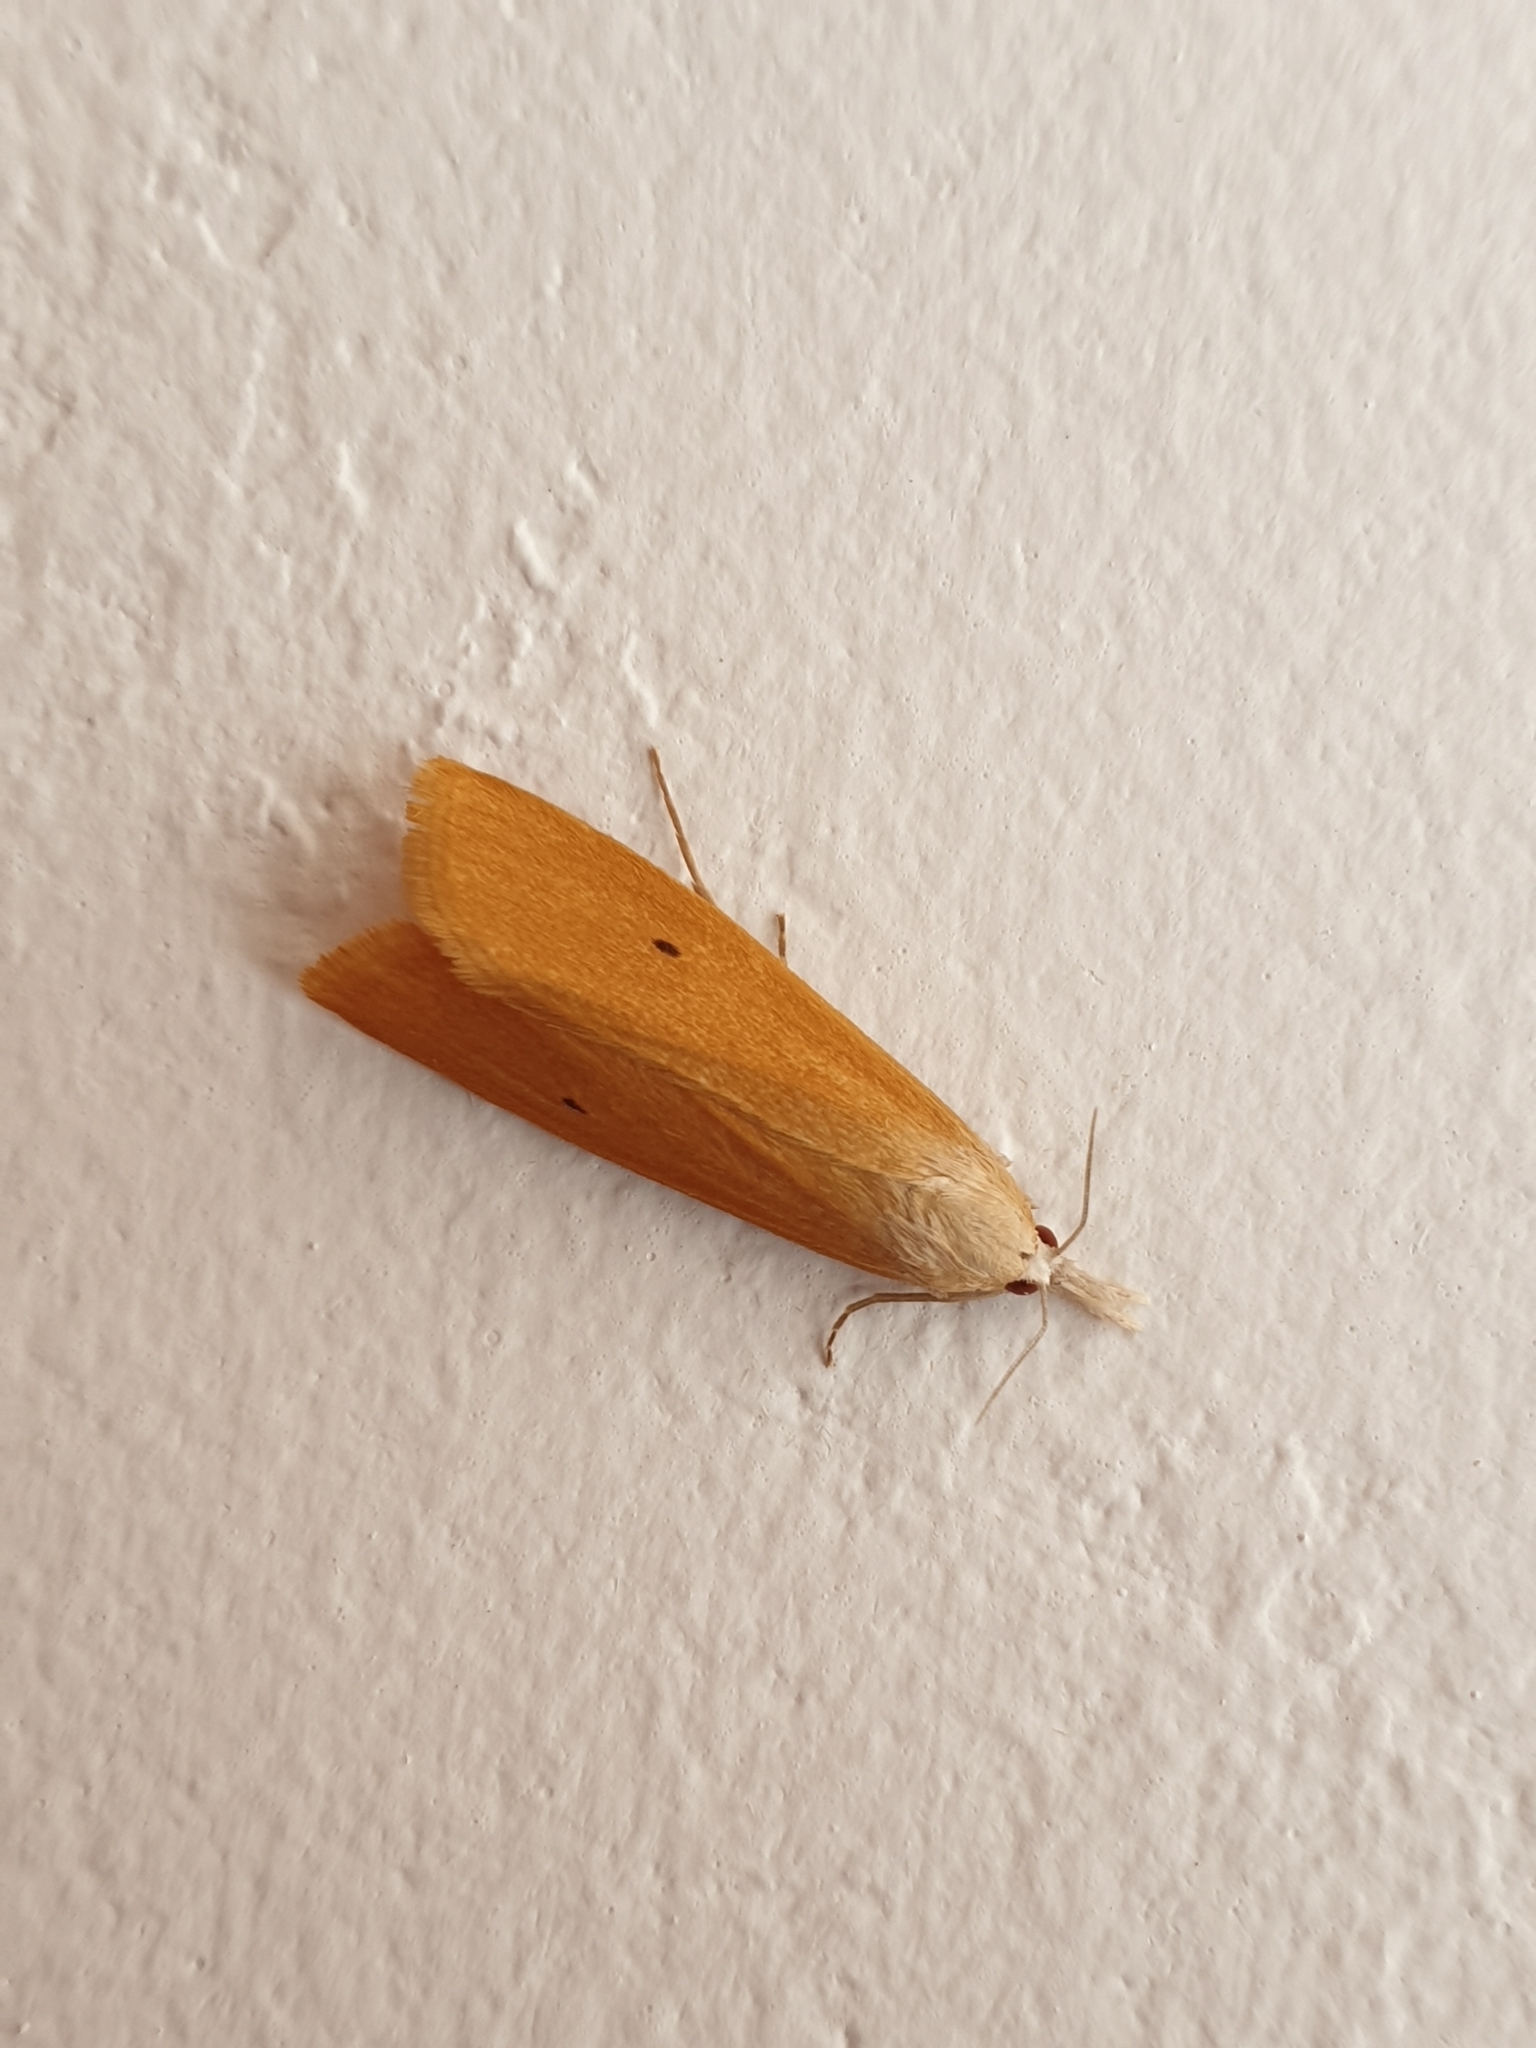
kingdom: Animalia
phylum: Arthropoda
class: Insecta
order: Lepidoptera
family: Crambidae
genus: Scirpophaga
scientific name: Scirpophaga incertulas
